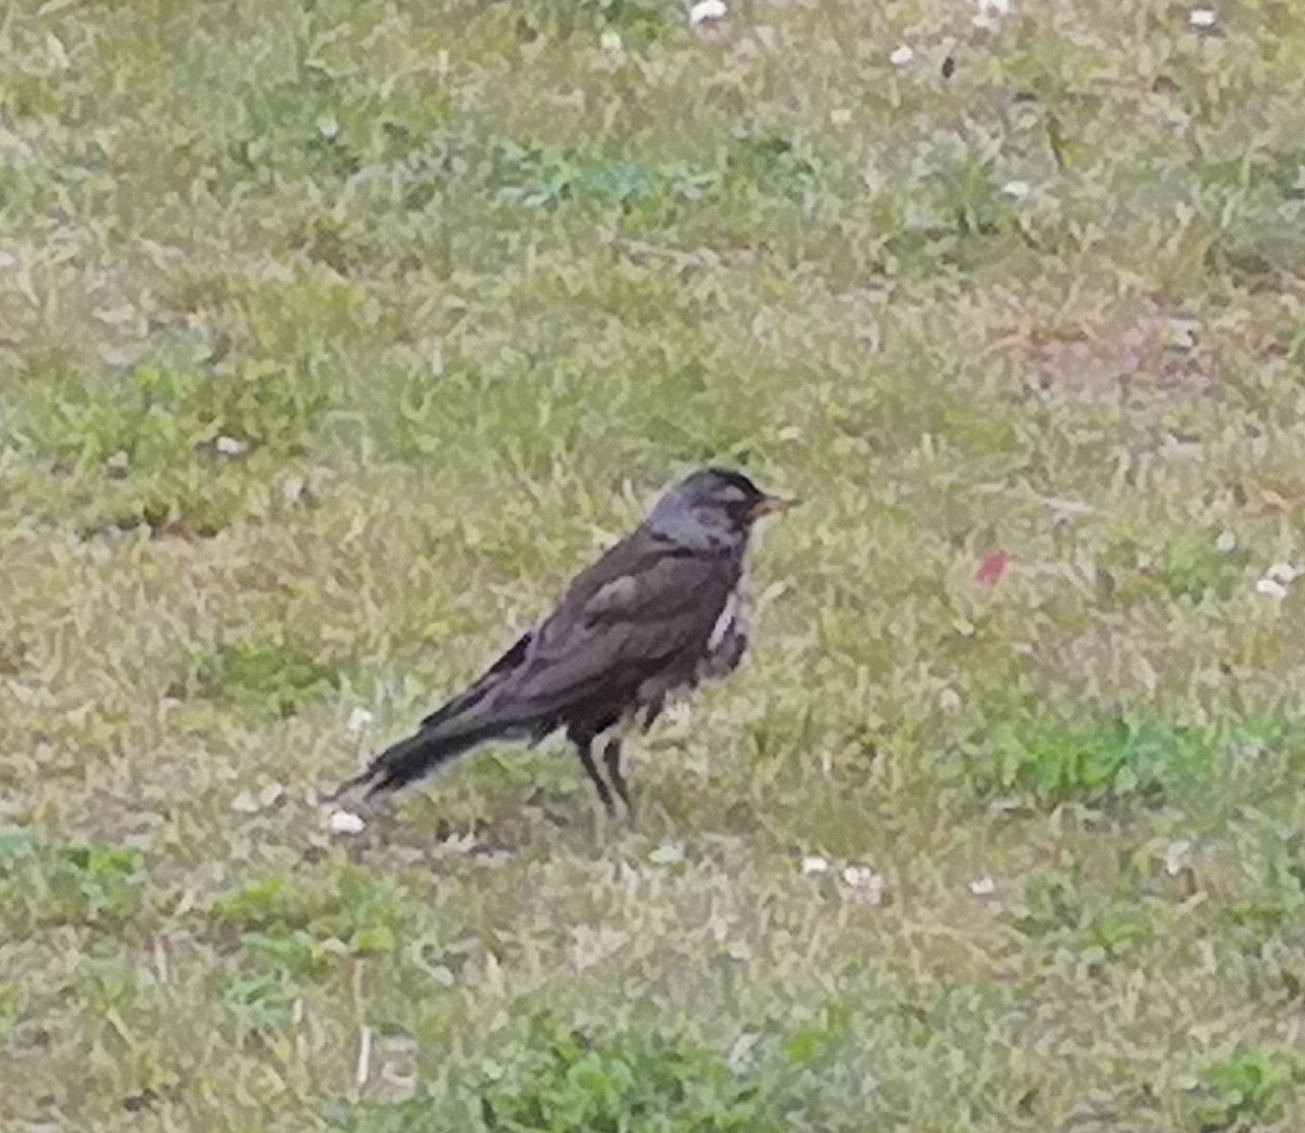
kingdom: Animalia
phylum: Chordata
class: Aves
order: Passeriformes
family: Turdidae
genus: Turdus
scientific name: Turdus pilaris
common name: Fieldfare
